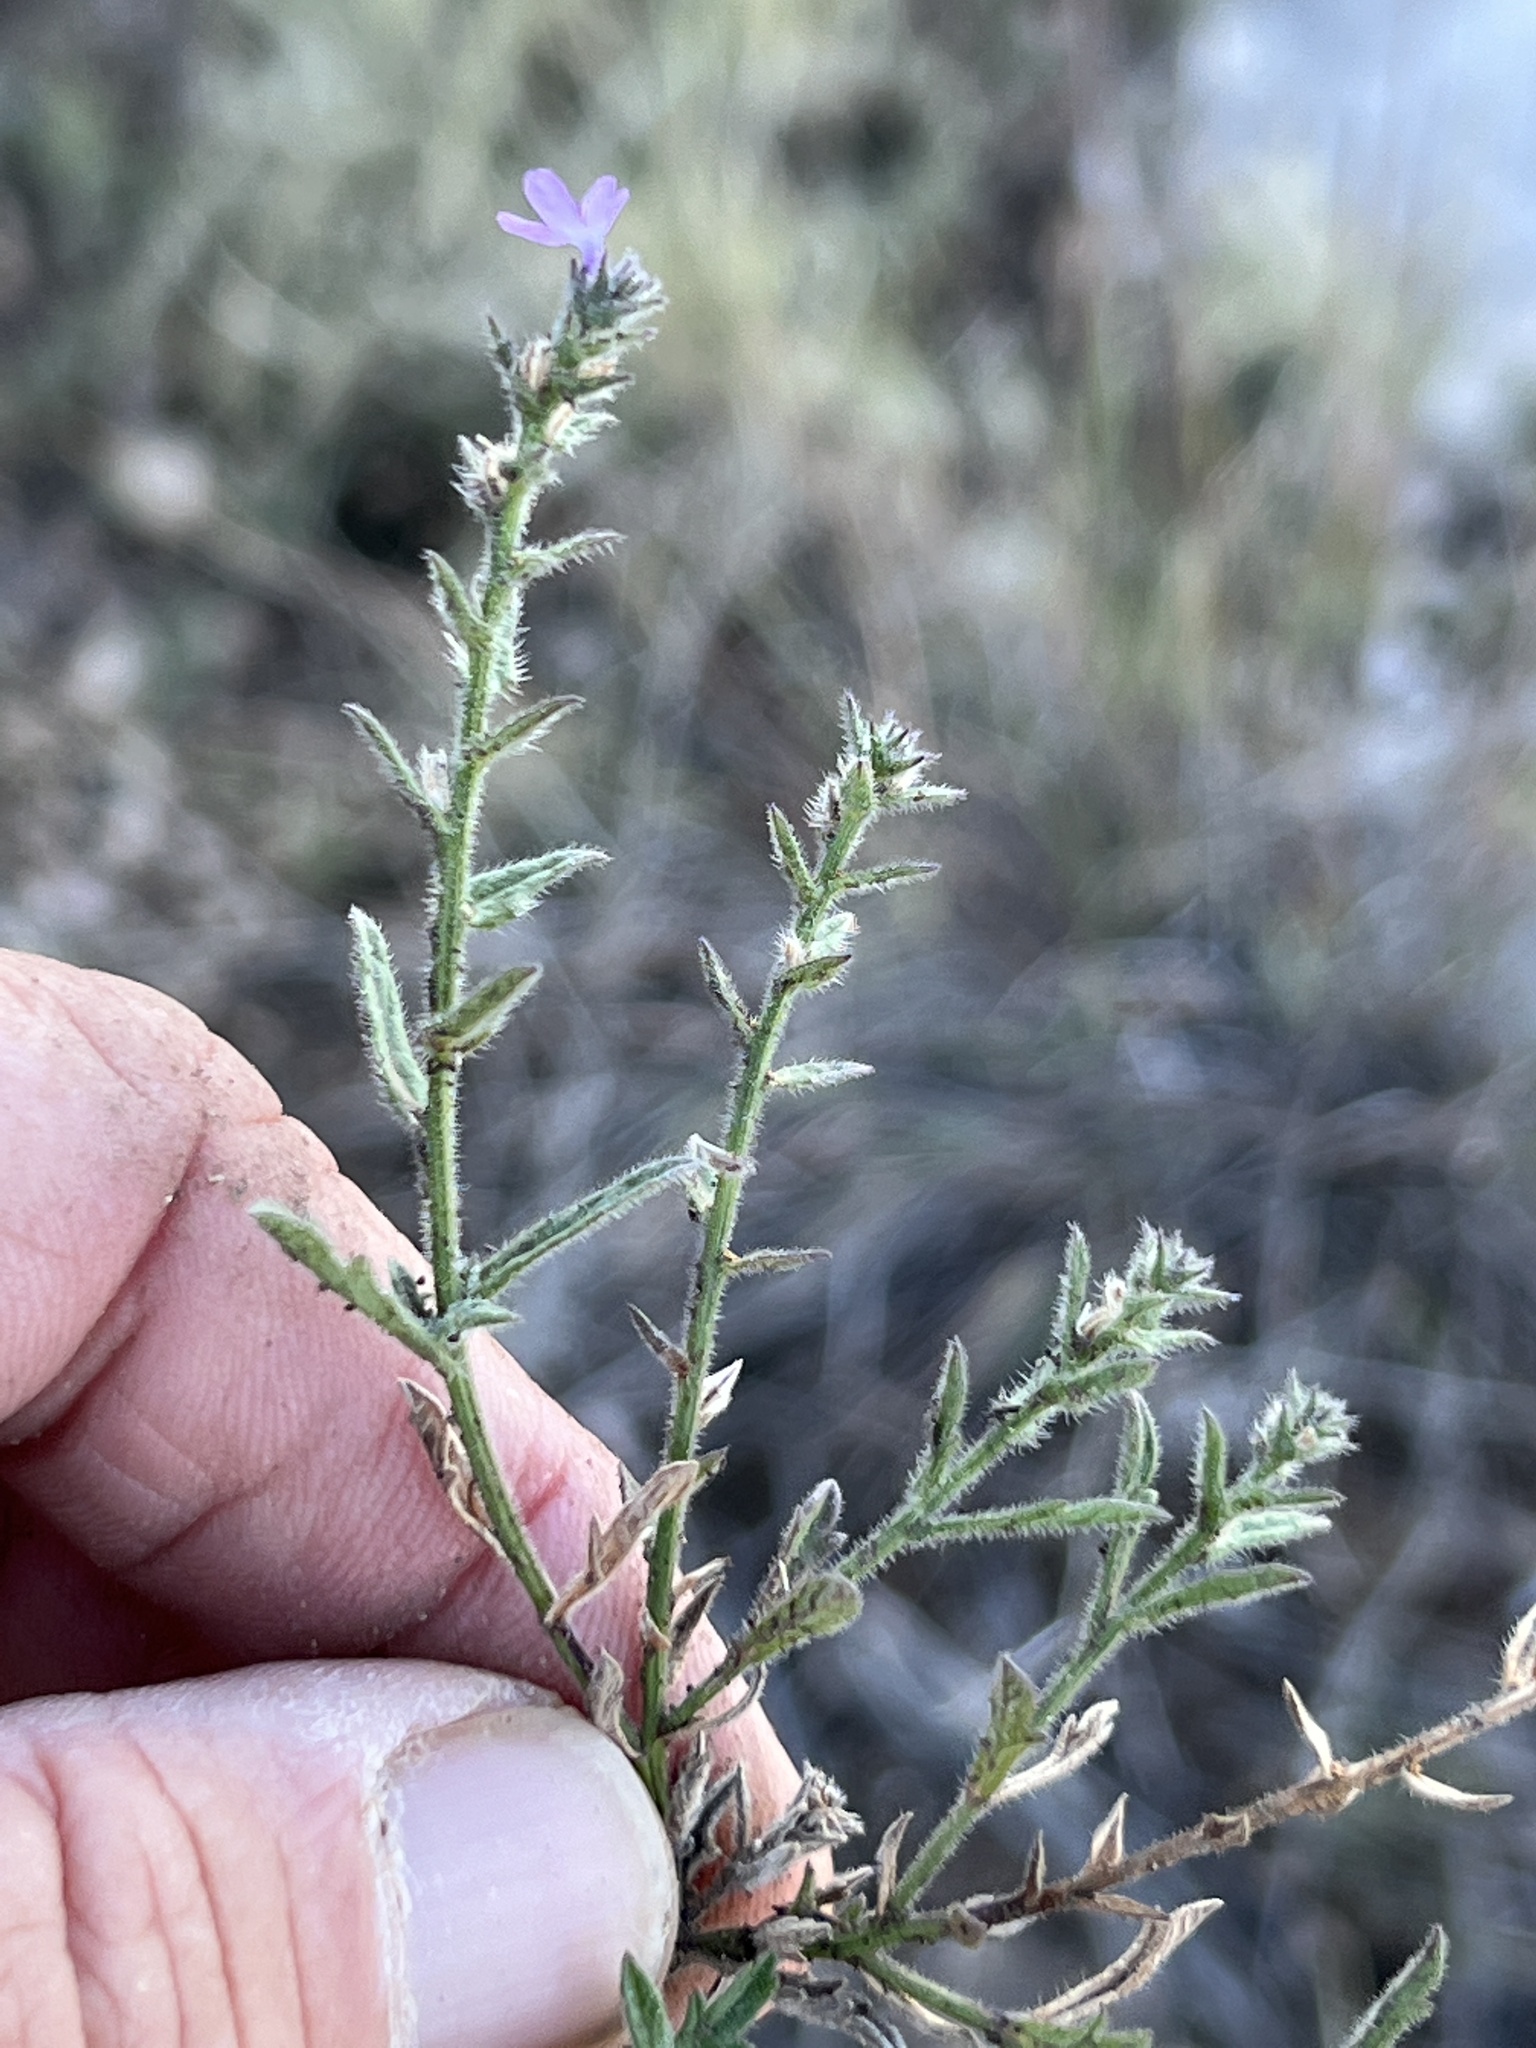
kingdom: Plantae
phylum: Tracheophyta
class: Magnoliopsida
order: Lamiales
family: Verbenaceae
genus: Verbena
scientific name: Verbena canescens
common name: Gray vervain
